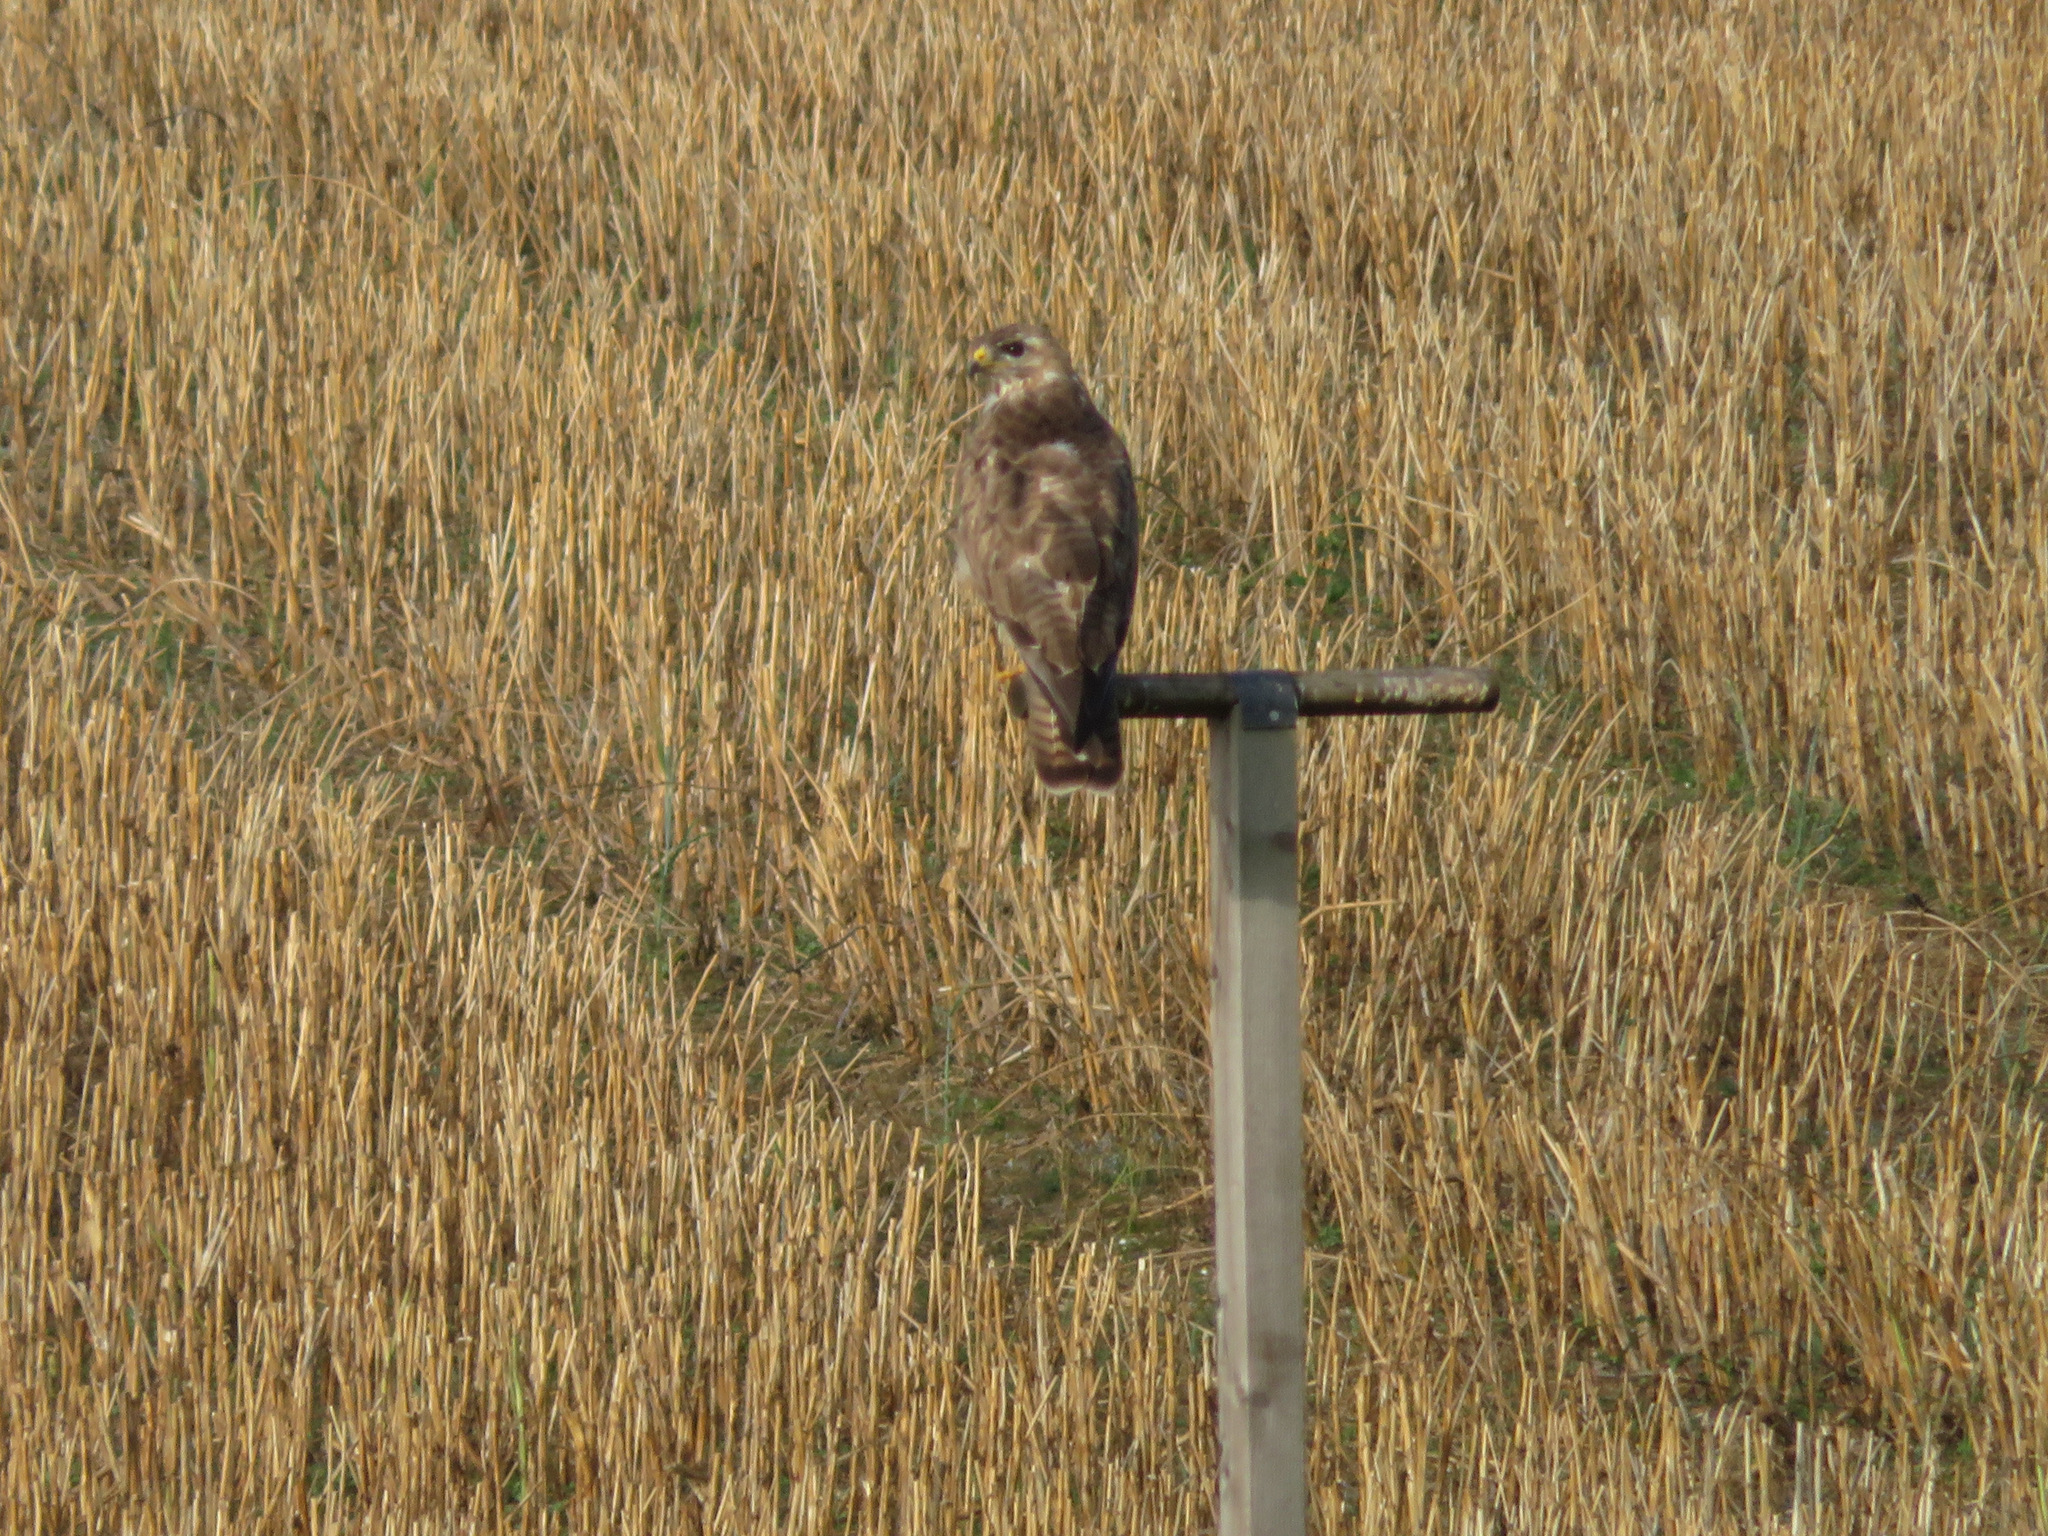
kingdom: Animalia
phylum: Chordata
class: Aves
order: Accipitriformes
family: Accipitridae
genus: Buteo
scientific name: Buteo buteo
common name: Common buzzard
